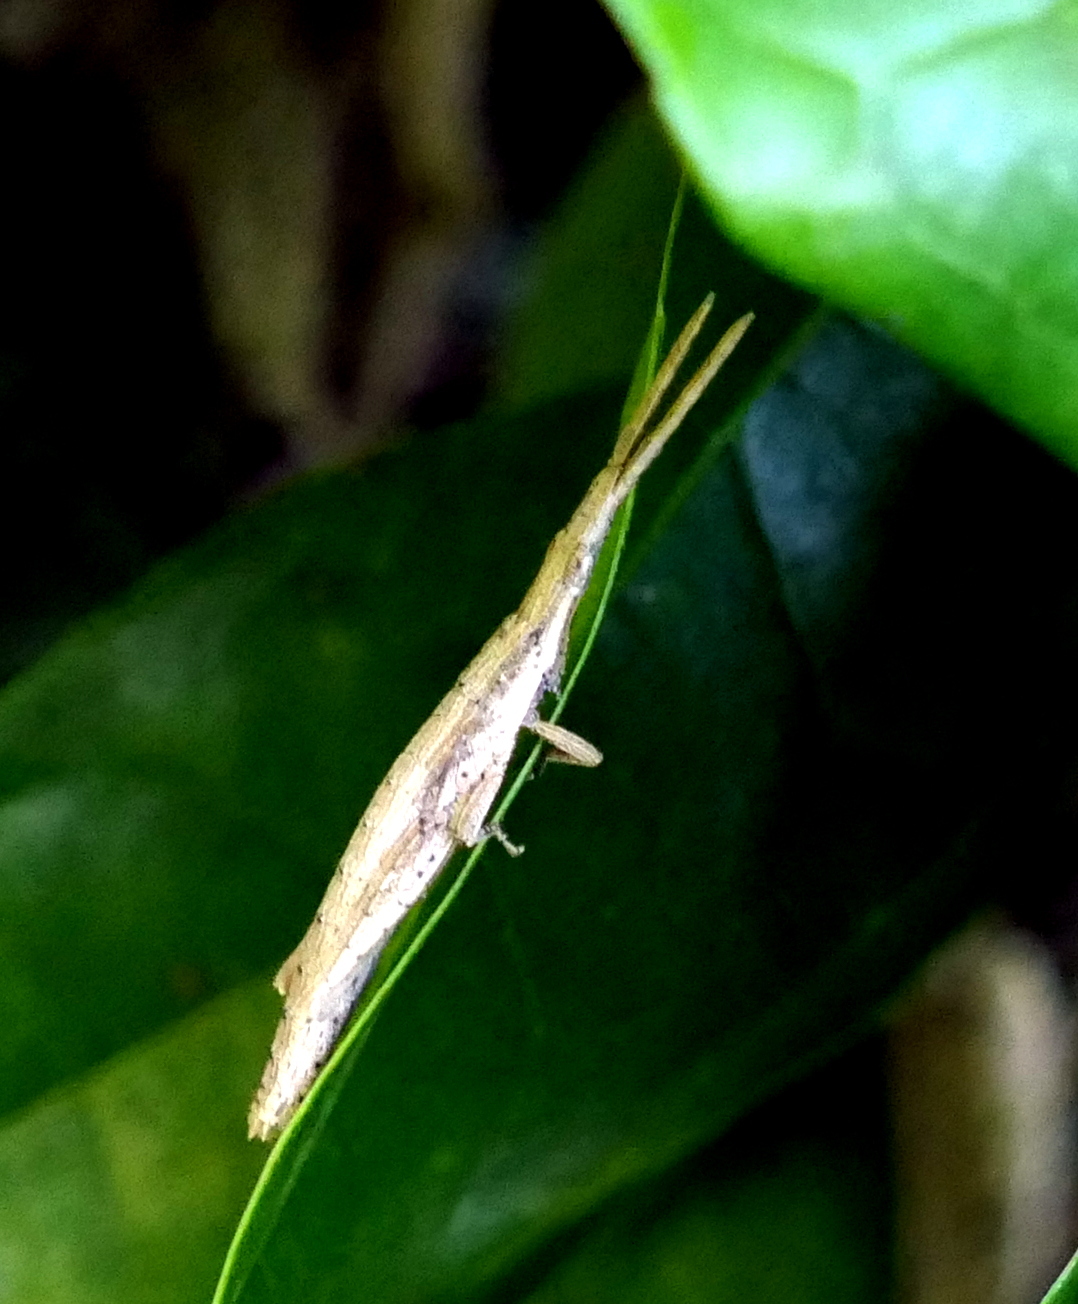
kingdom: Animalia
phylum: Arthropoda
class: Insecta
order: Orthoptera
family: Pyrgomorphidae
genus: Algete
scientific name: Algete brunneri
